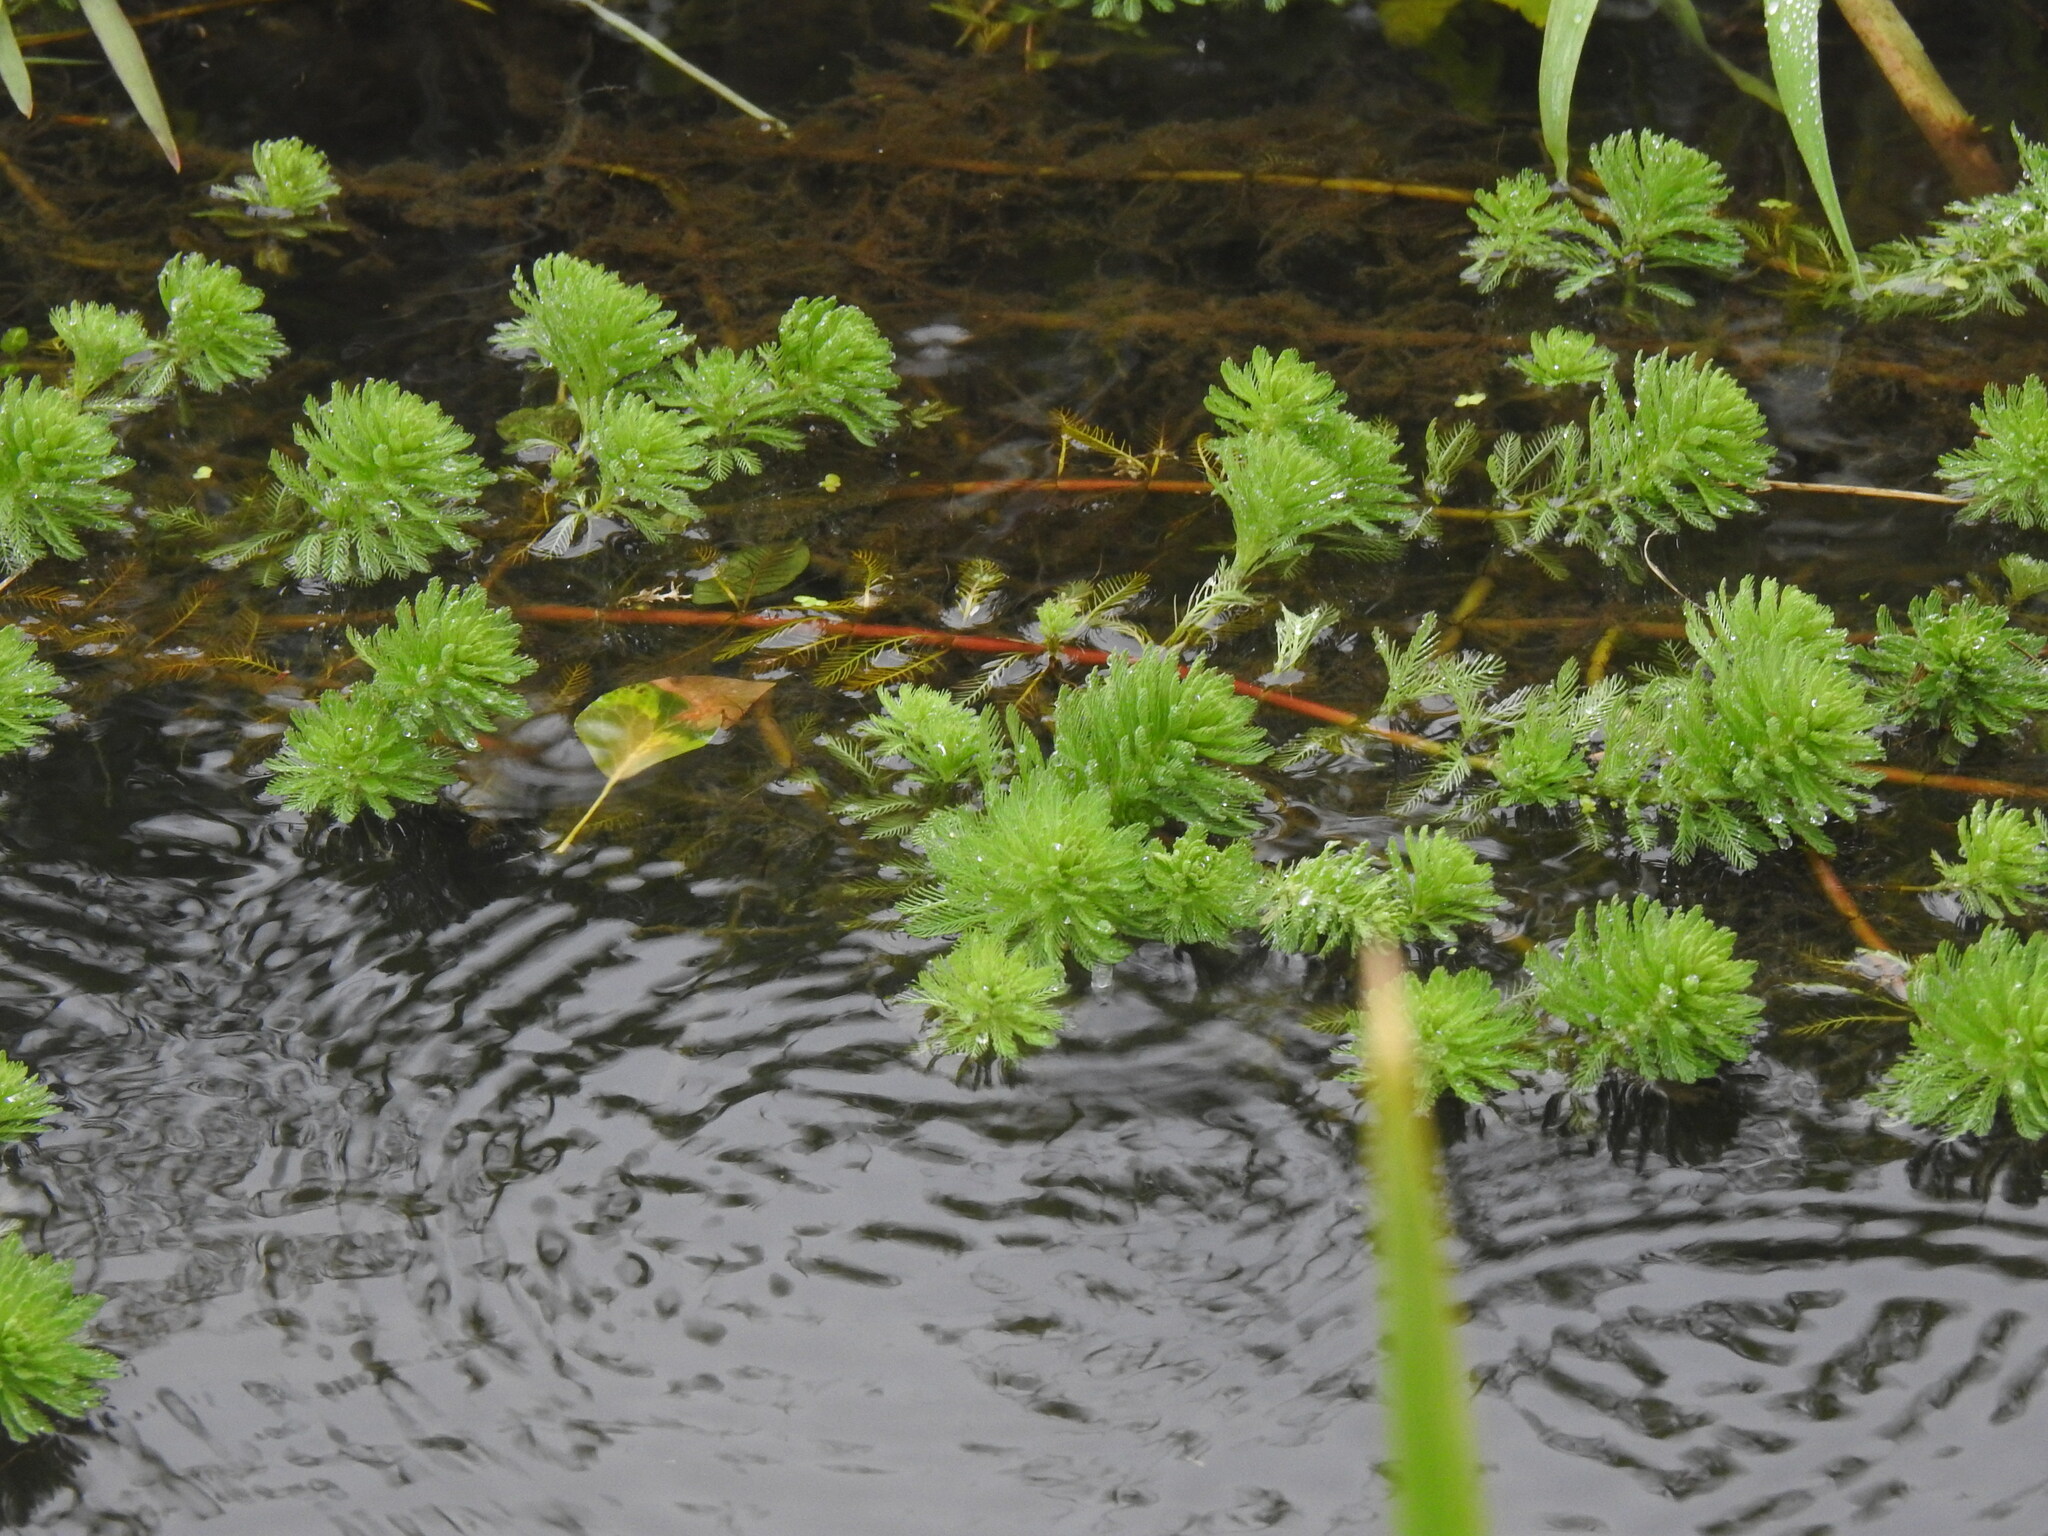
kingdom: Plantae
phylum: Tracheophyta
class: Magnoliopsida
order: Saxifragales
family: Haloragaceae
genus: Myriophyllum
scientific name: Myriophyllum aquaticum
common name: Parrot's feather
